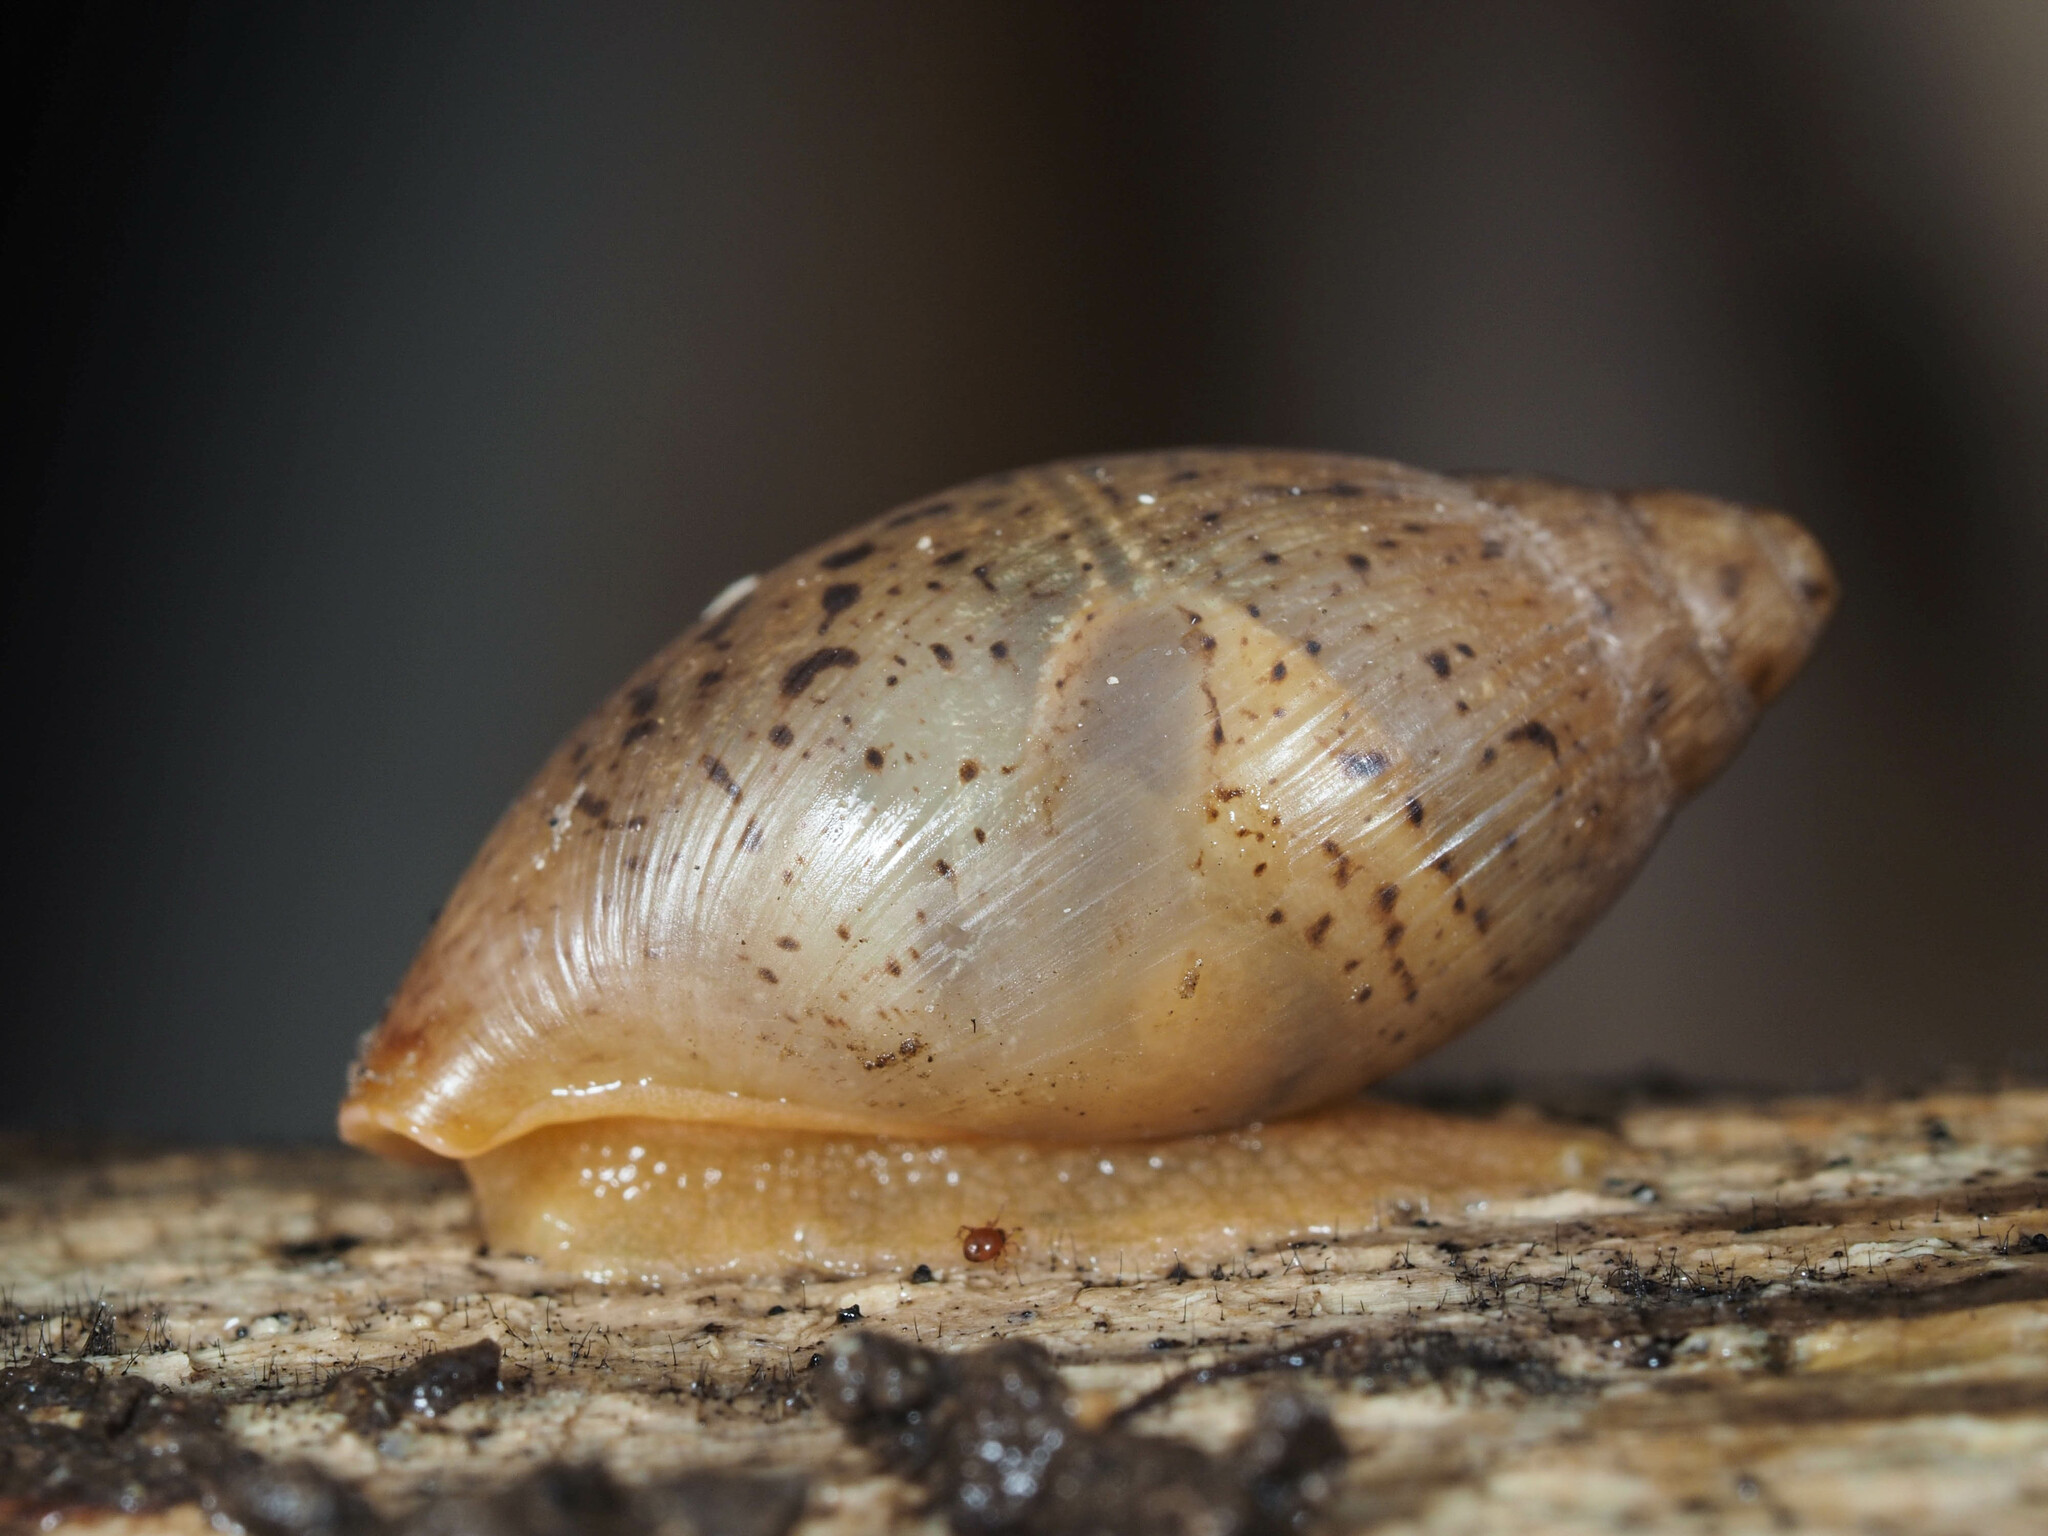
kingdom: Animalia
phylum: Mollusca
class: Gastropoda
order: Stylommatophora
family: Spiraxidae
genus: Poiretia
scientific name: Poiretia dilatata
